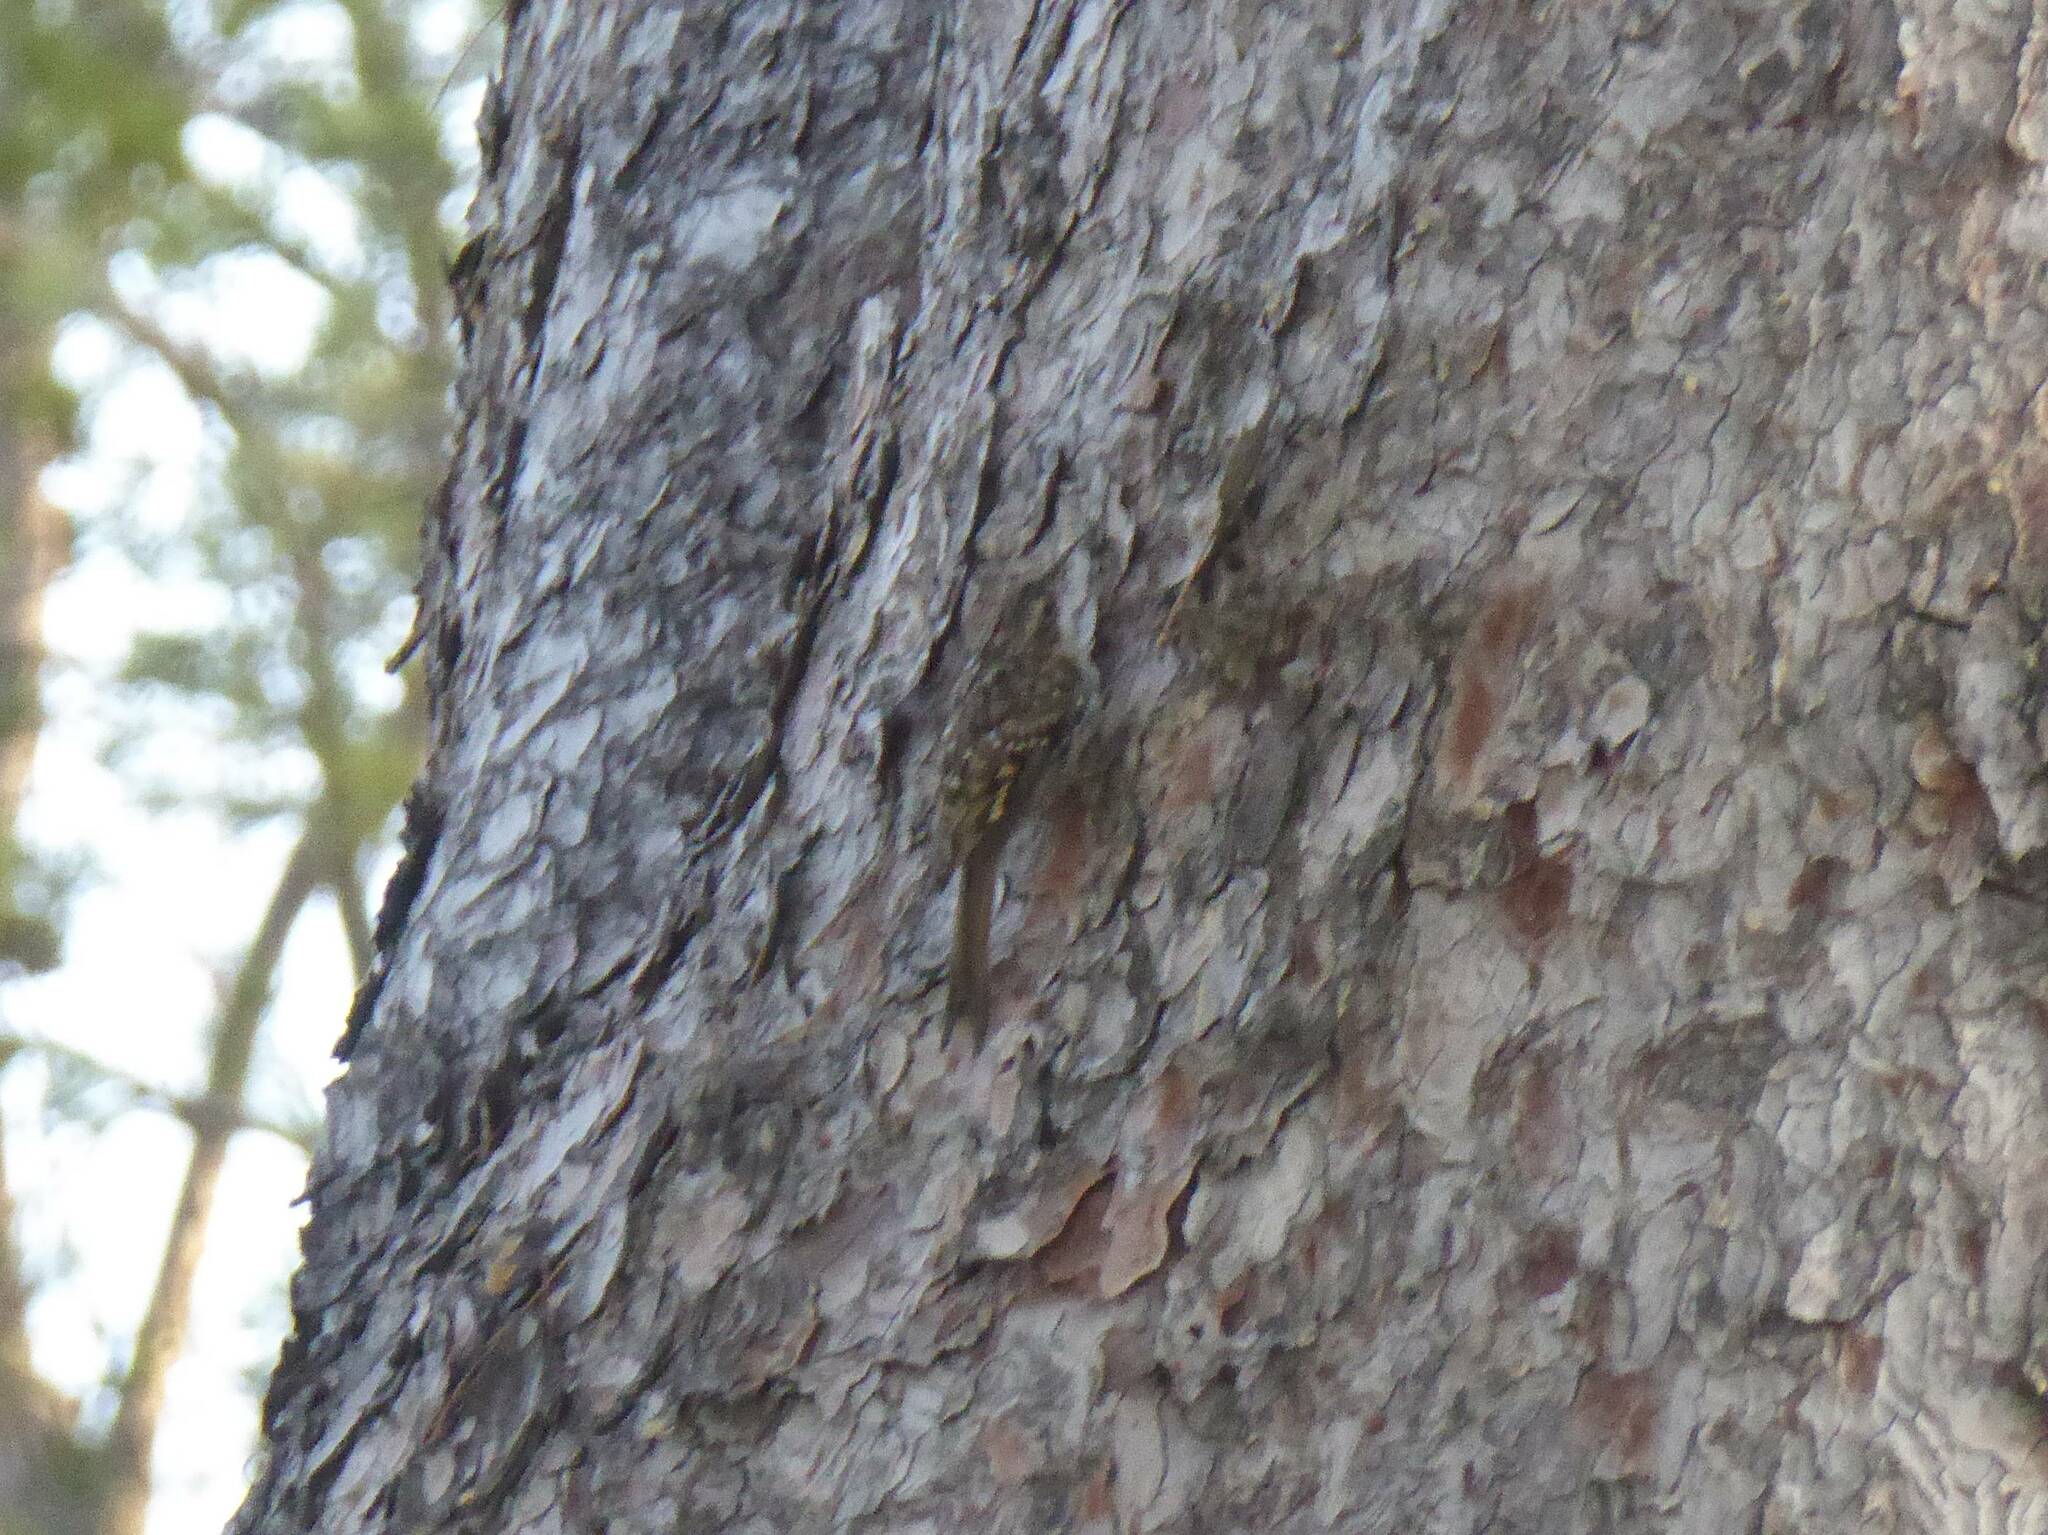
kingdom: Animalia
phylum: Chordata
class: Aves
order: Passeriformes
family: Certhiidae
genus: Certhia
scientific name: Certhia brachydactyla
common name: Short-toed treecreeper
